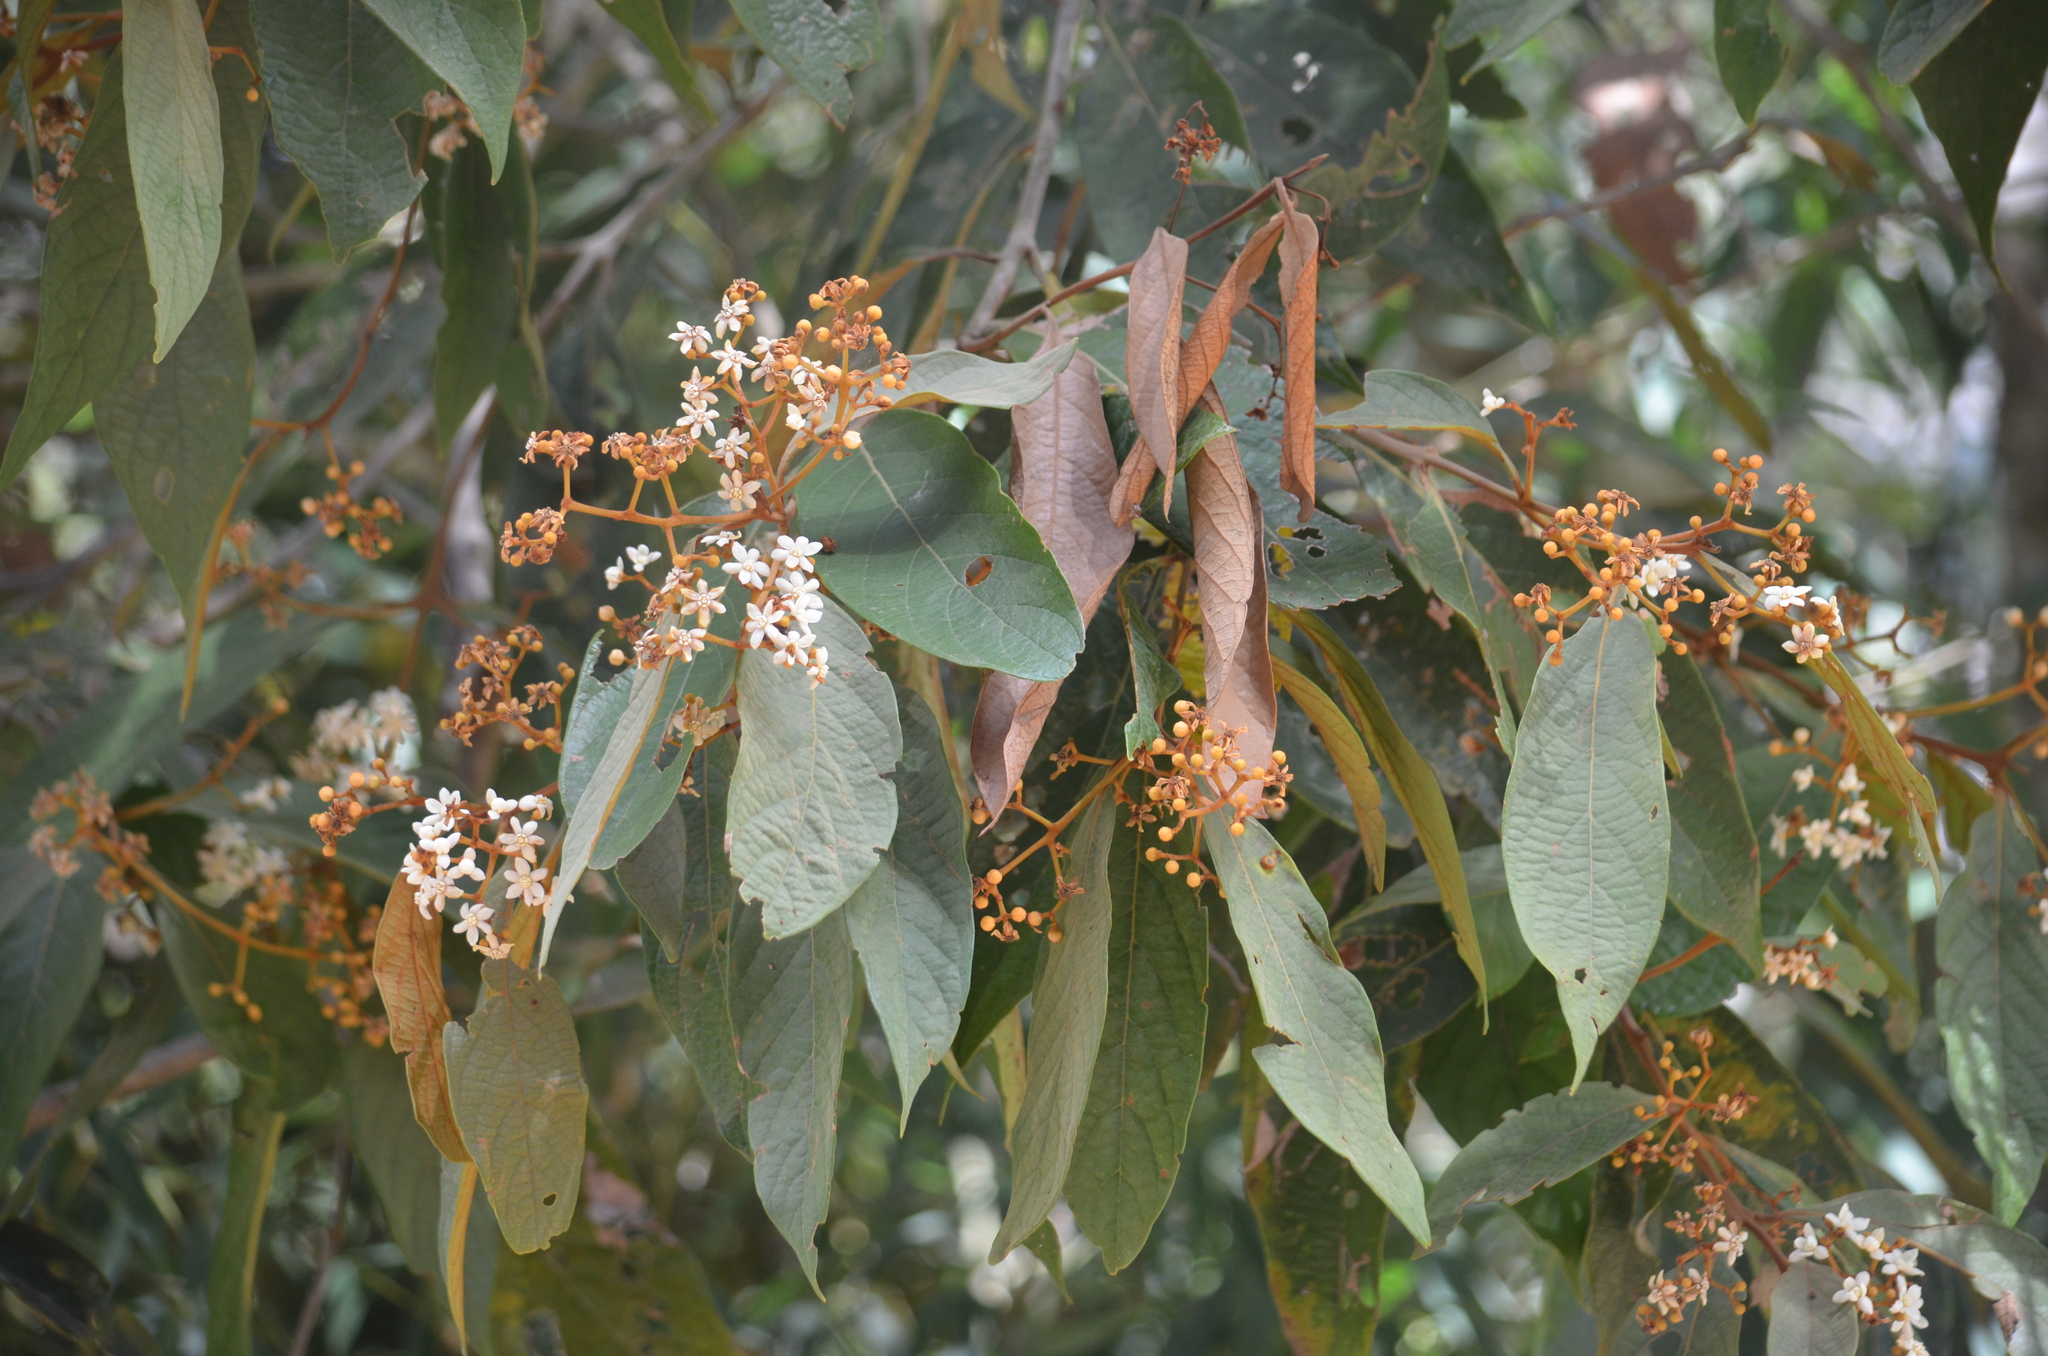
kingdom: Plantae
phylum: Tracheophyta
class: Magnoliopsida
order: Laurales
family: Lauraceae
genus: Nectandra
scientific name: Nectandra oppositifolia
